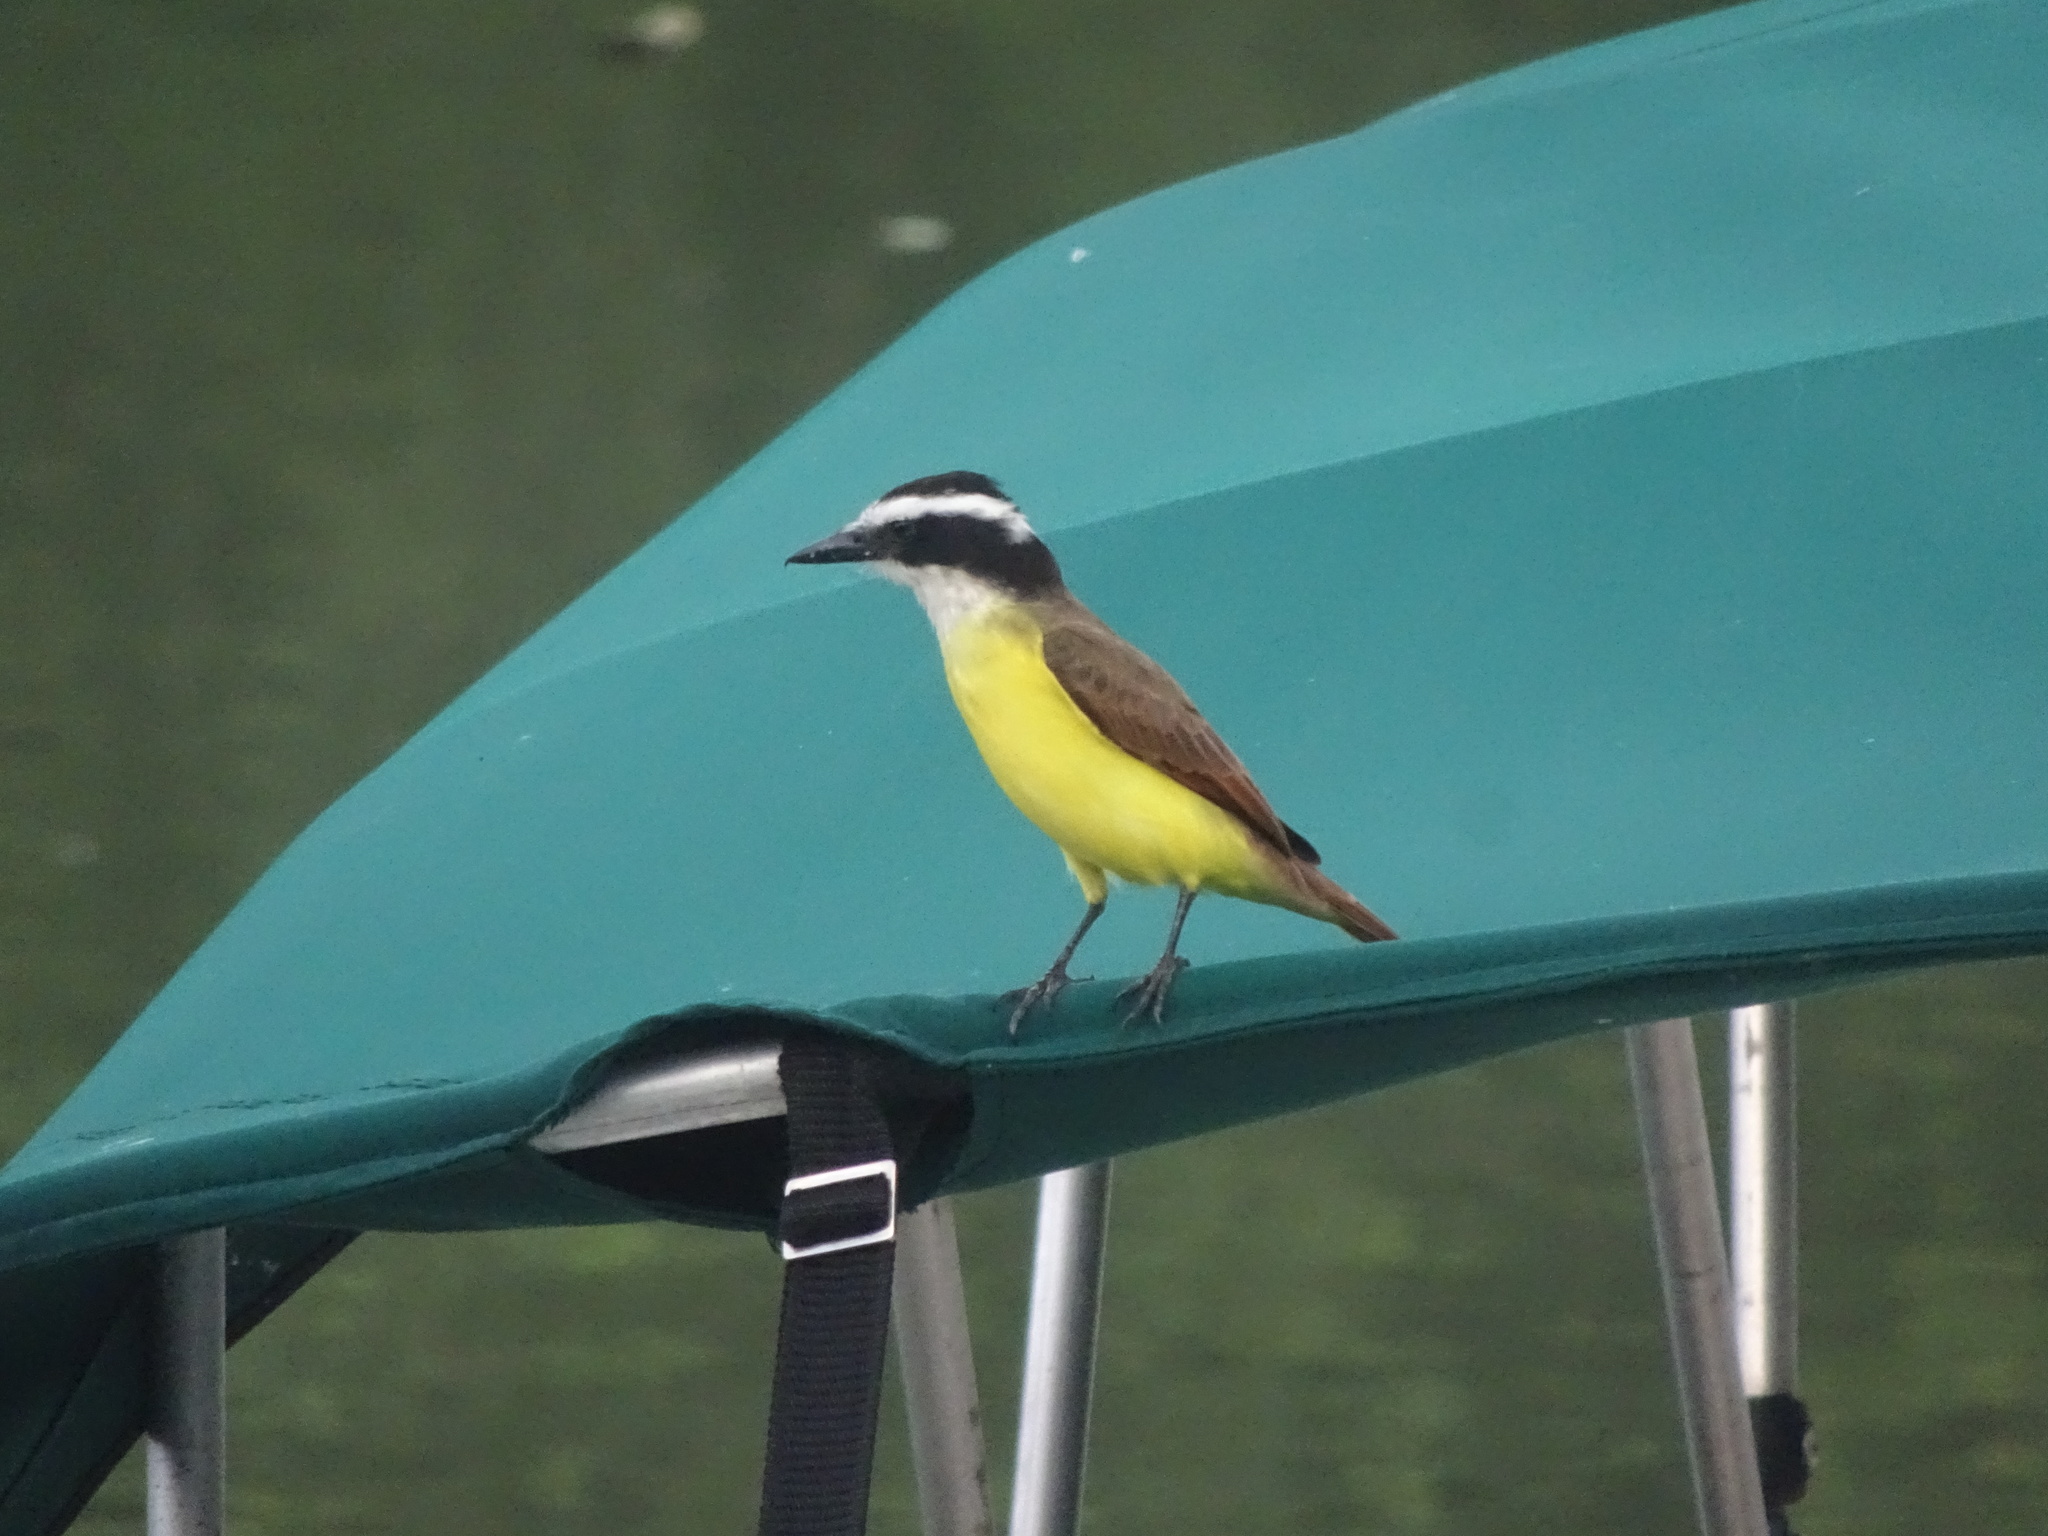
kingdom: Animalia
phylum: Chordata
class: Aves
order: Passeriformes
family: Tyrannidae
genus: Pitangus
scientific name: Pitangus sulphuratus
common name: Great kiskadee
